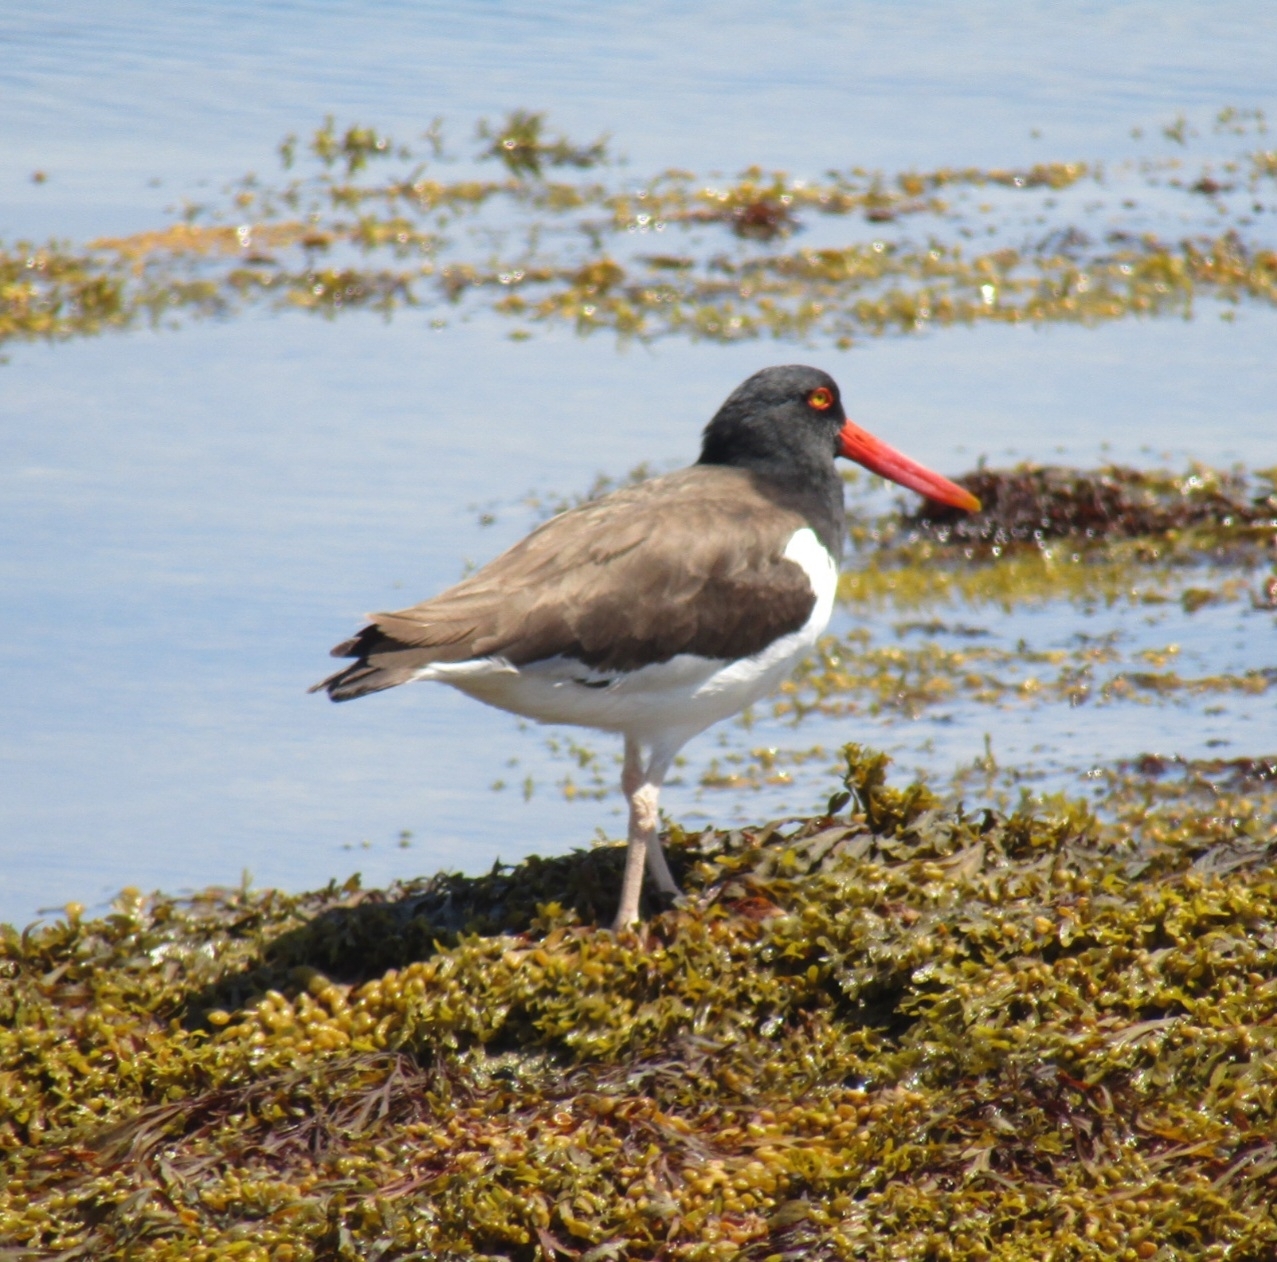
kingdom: Animalia
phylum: Chordata
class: Aves
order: Charadriiformes
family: Haematopodidae
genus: Haematopus
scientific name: Haematopus palliatus
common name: American oystercatcher
